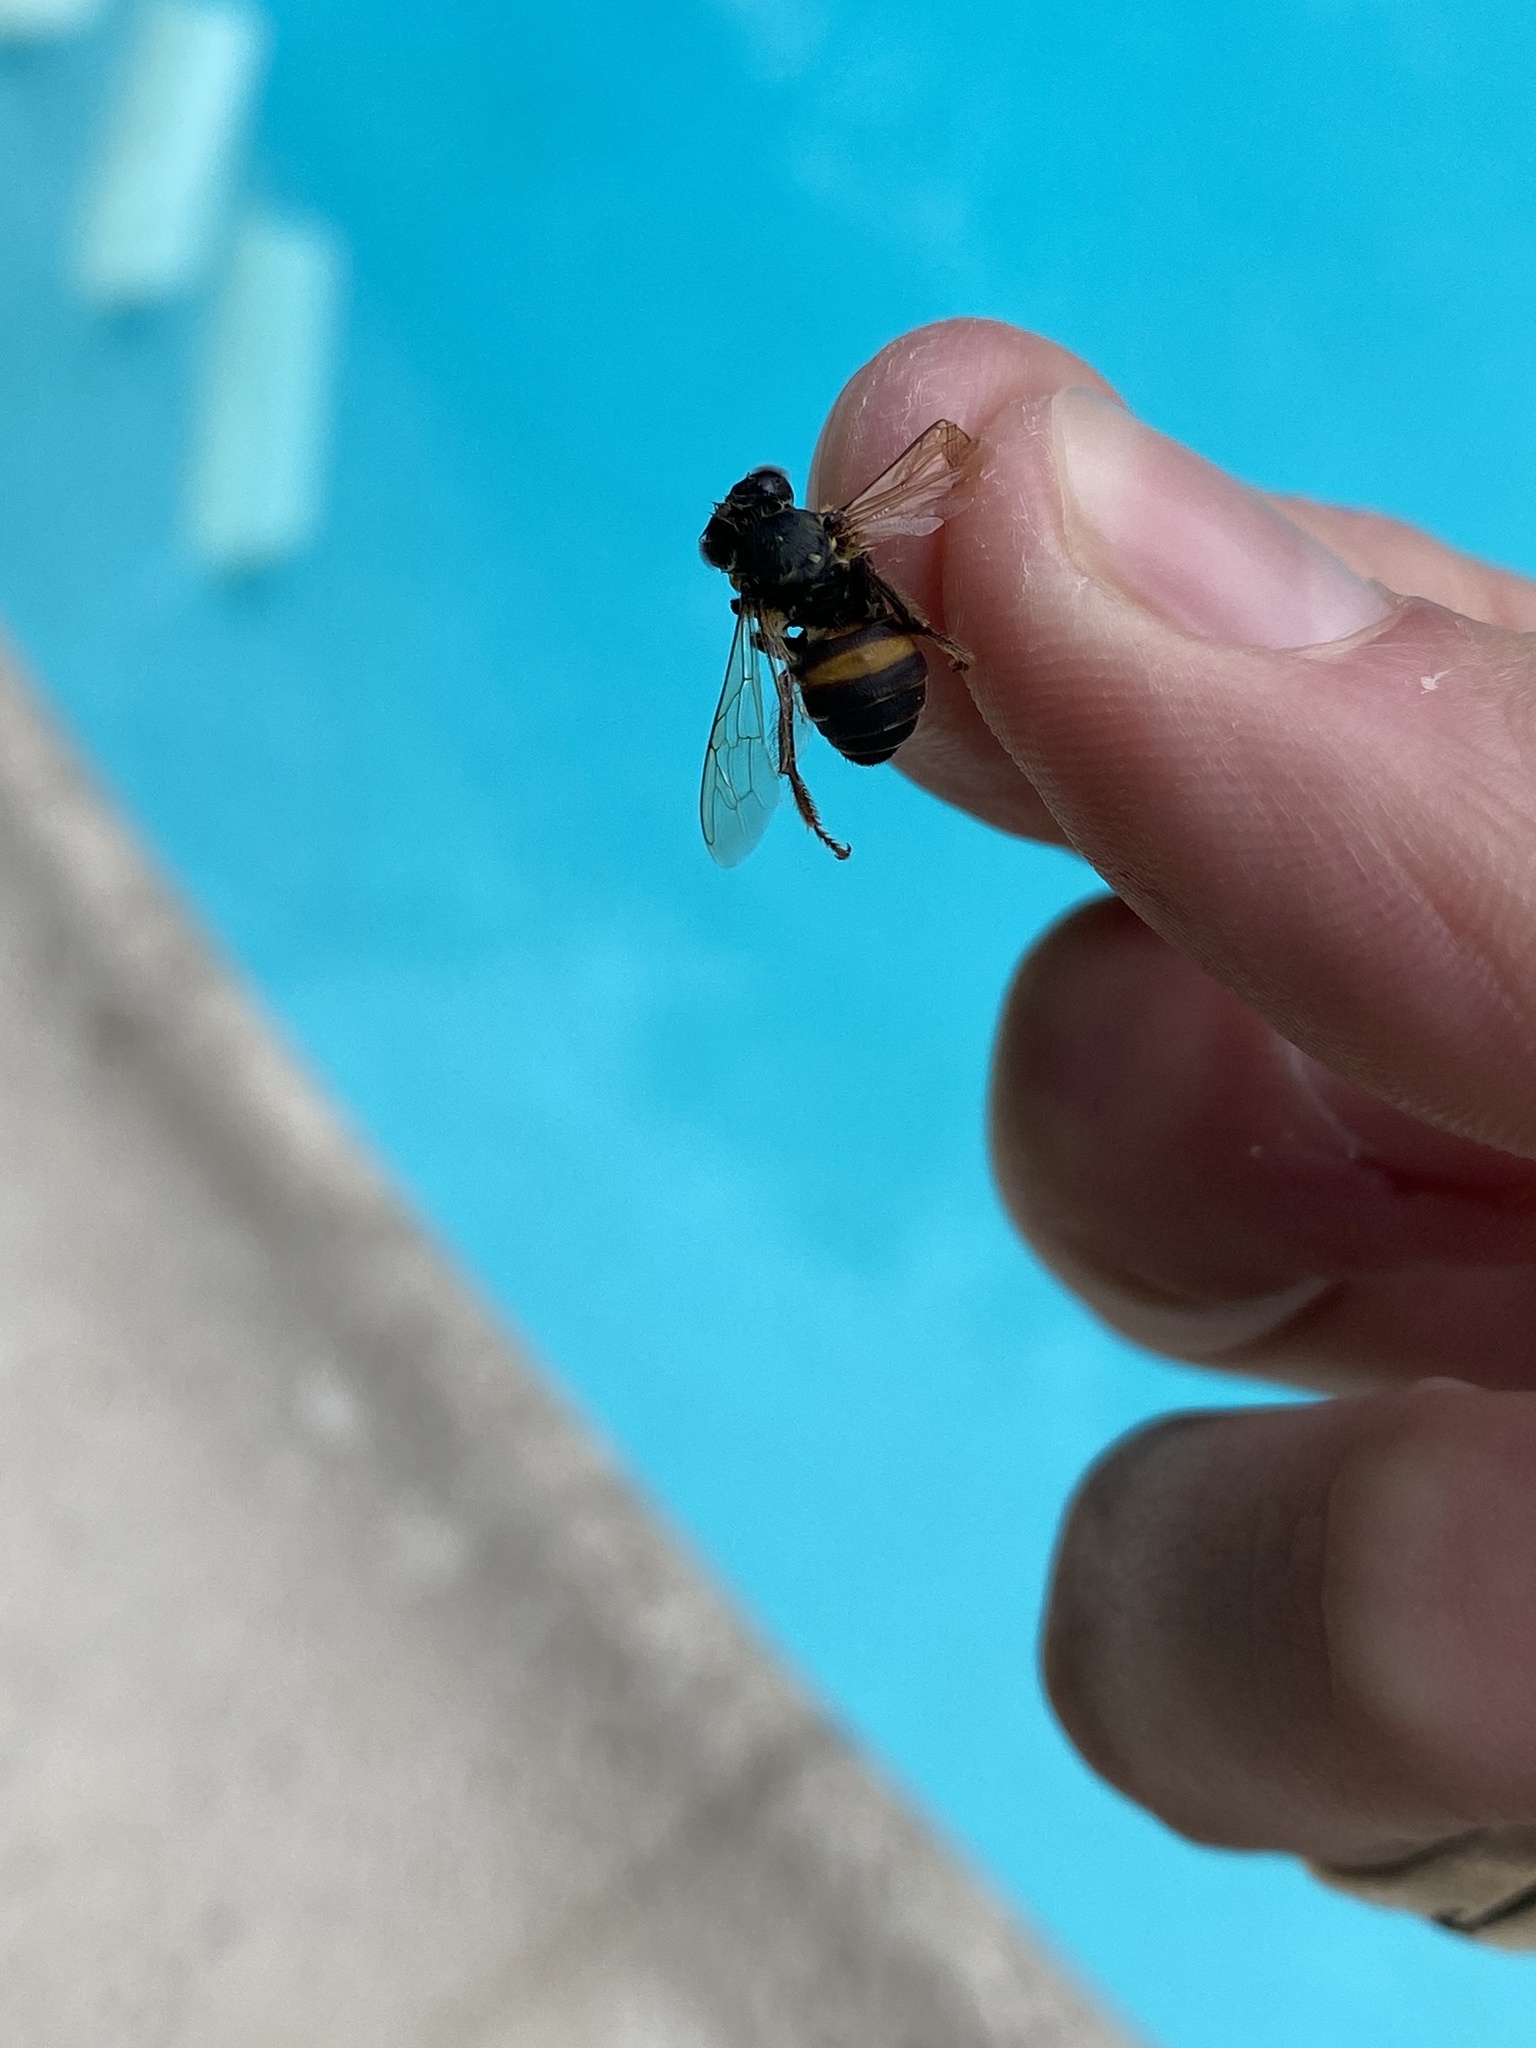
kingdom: Animalia
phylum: Arthropoda
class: Insecta
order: Hymenoptera
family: Apidae
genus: Apis
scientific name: Apis mellifera
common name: Honey bee
